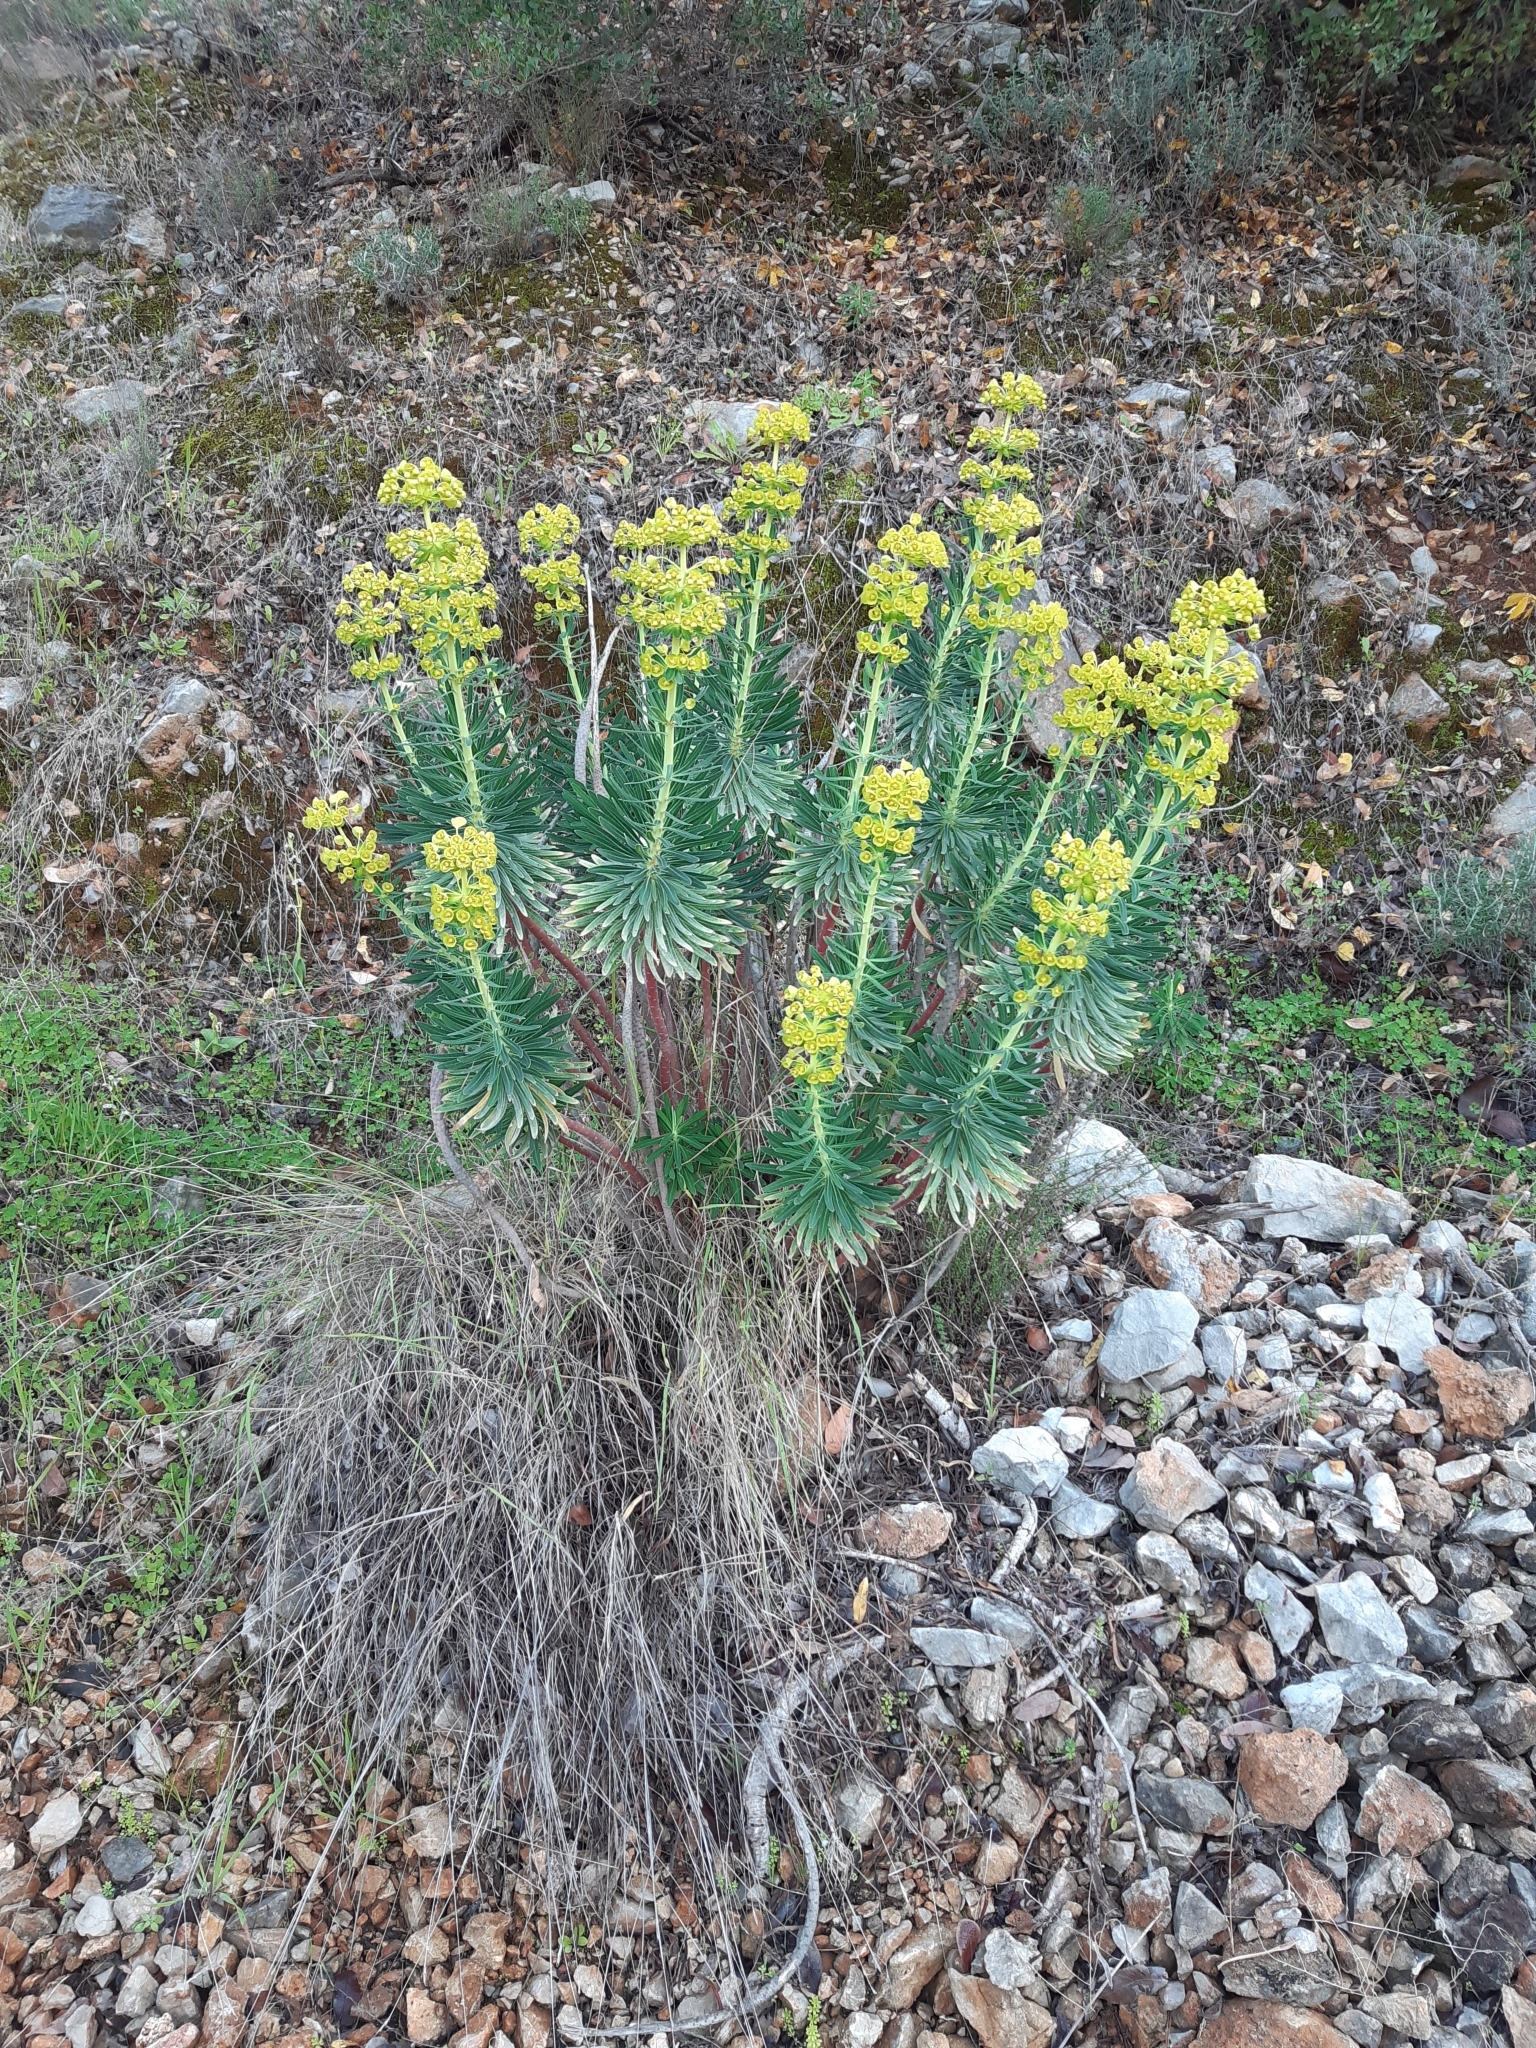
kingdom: Plantae
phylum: Tracheophyta
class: Magnoliopsida
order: Malpighiales
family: Euphorbiaceae
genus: Euphorbia
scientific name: Euphorbia characias
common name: Mediterranean spurge
